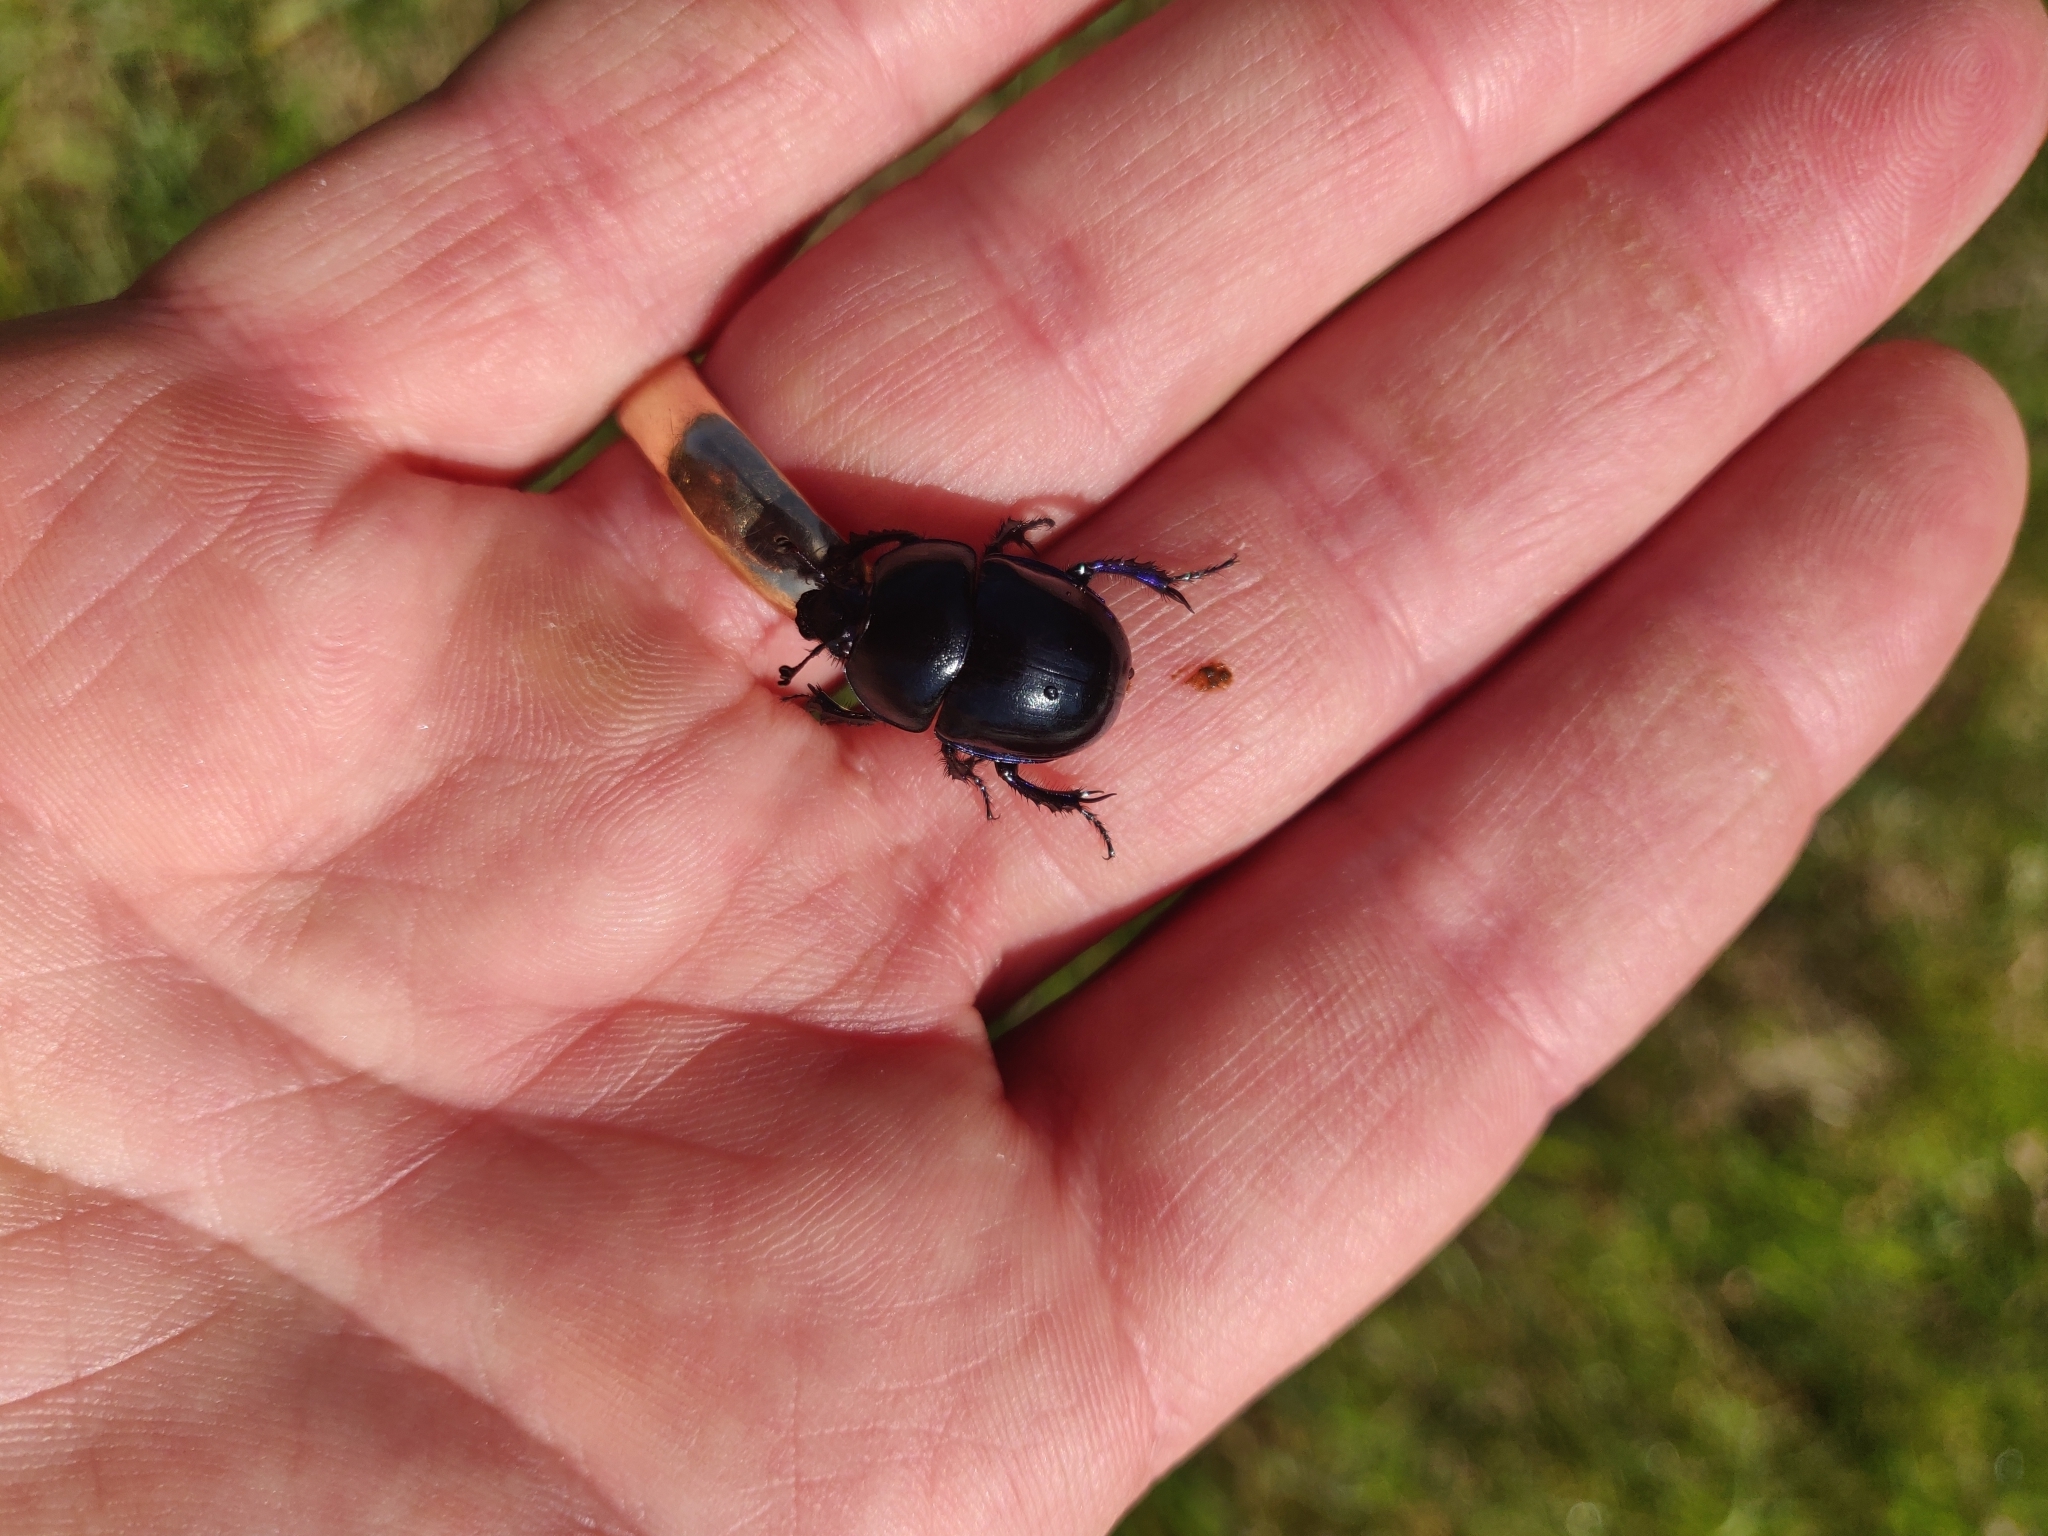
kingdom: Animalia
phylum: Arthropoda
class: Insecta
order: Coleoptera
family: Geotrupidae
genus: Trypocopris
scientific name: Trypocopris vernalis
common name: Spring dumbledor
